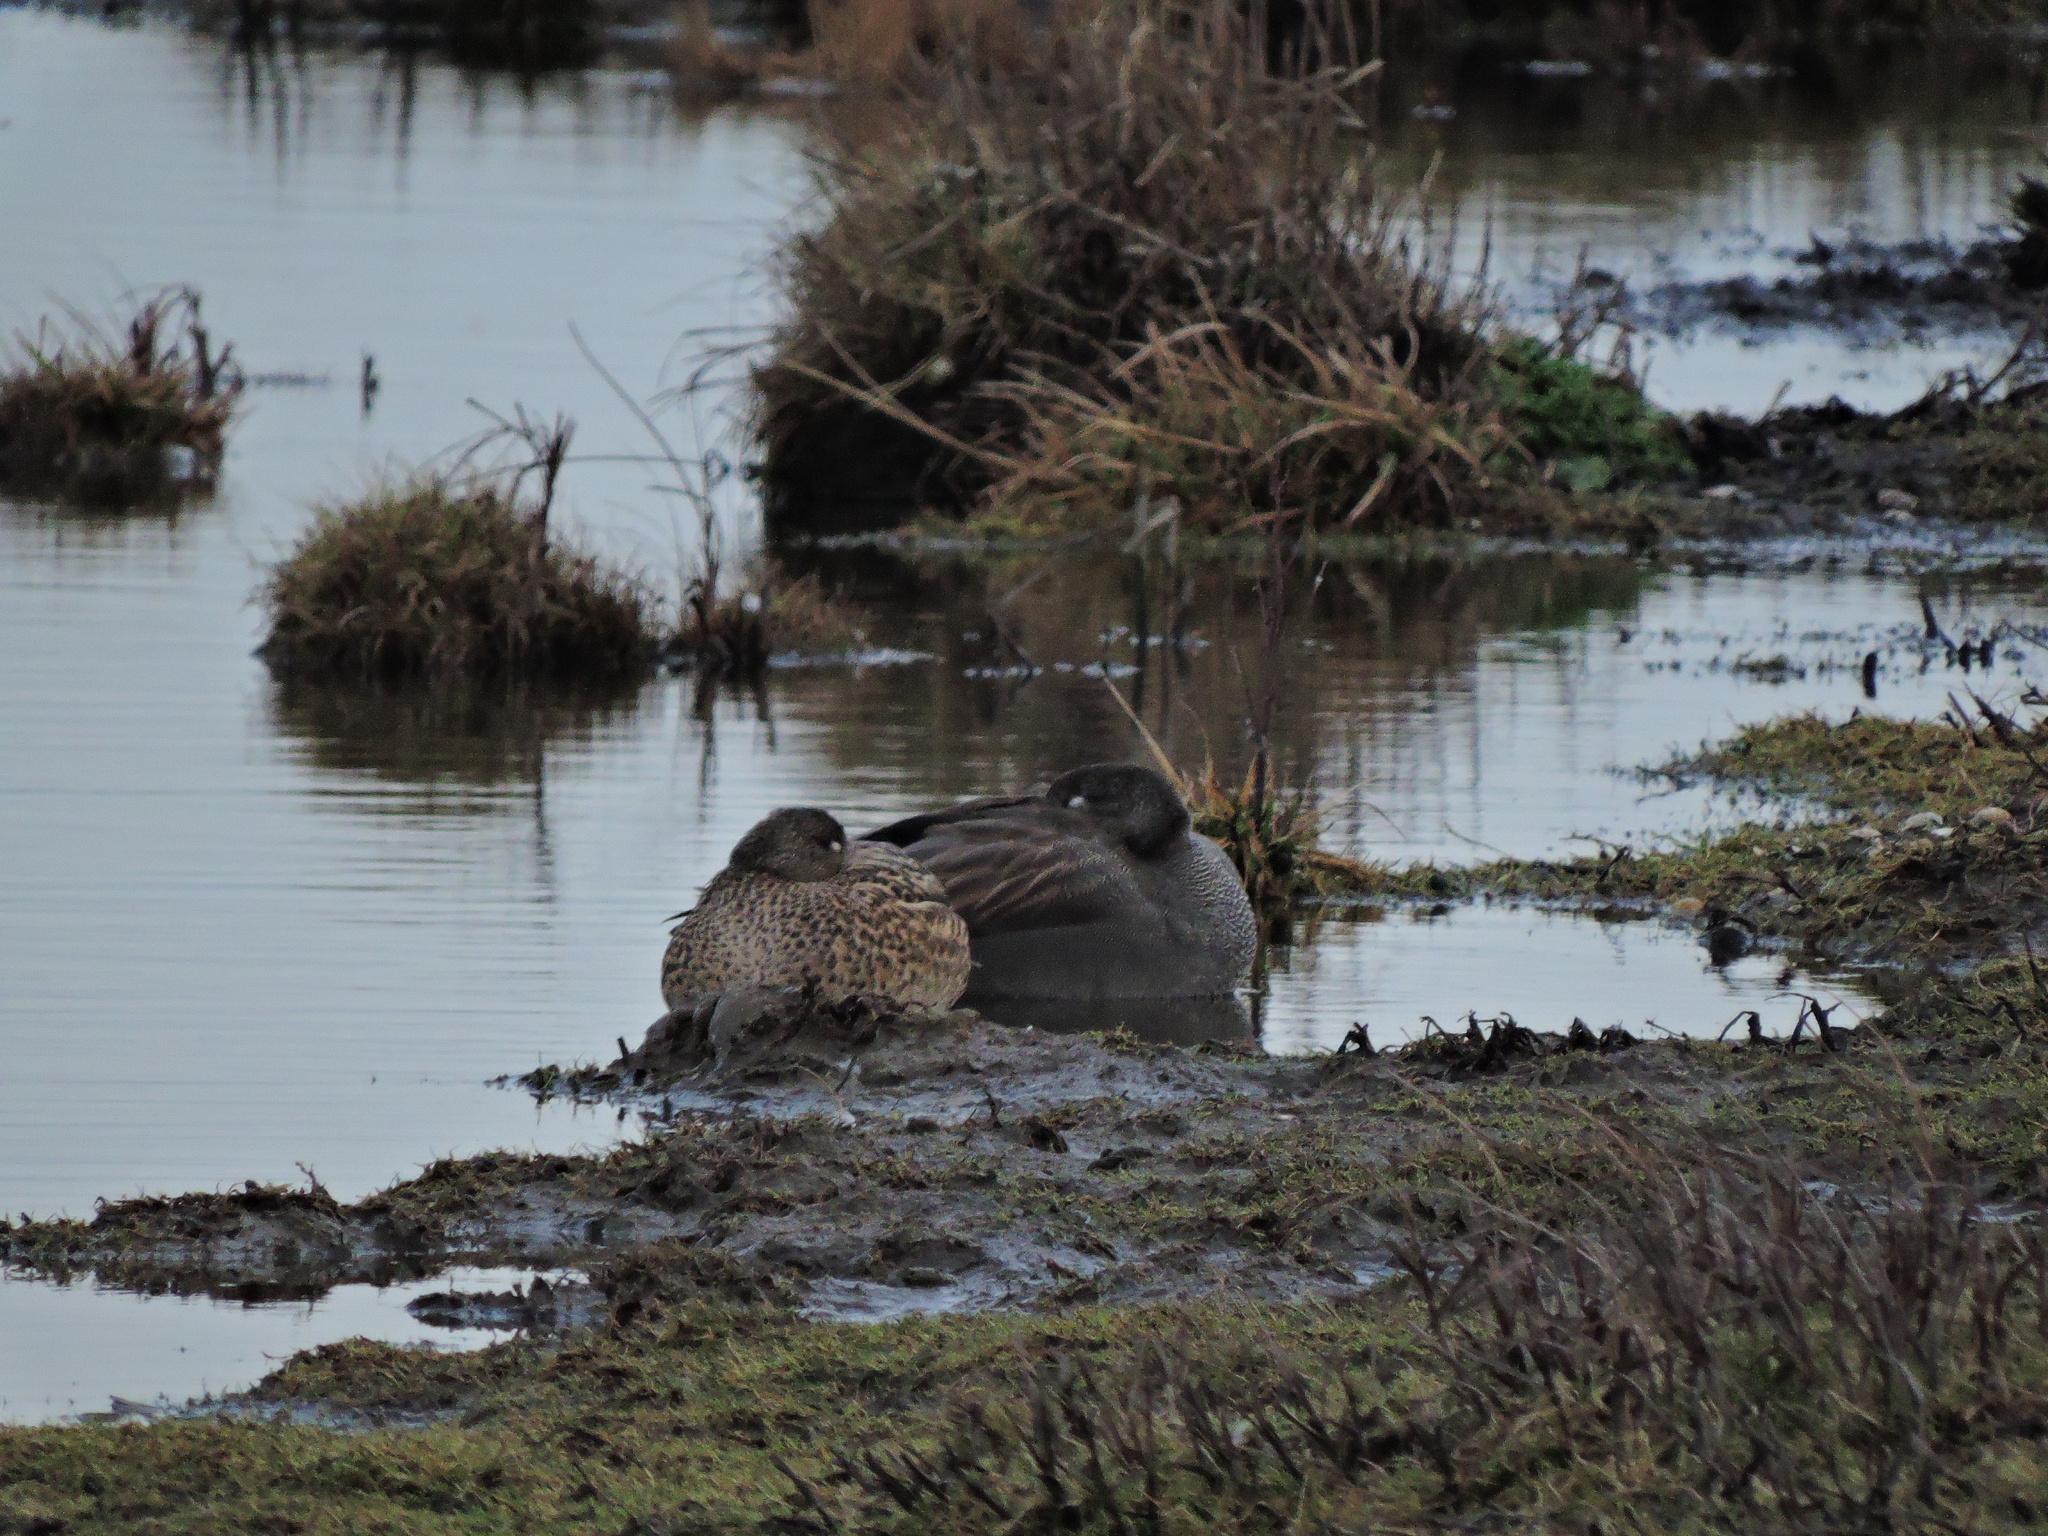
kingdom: Animalia
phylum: Chordata
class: Aves
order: Anseriformes
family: Anatidae
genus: Mareca
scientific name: Mareca strepera
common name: Gadwall
